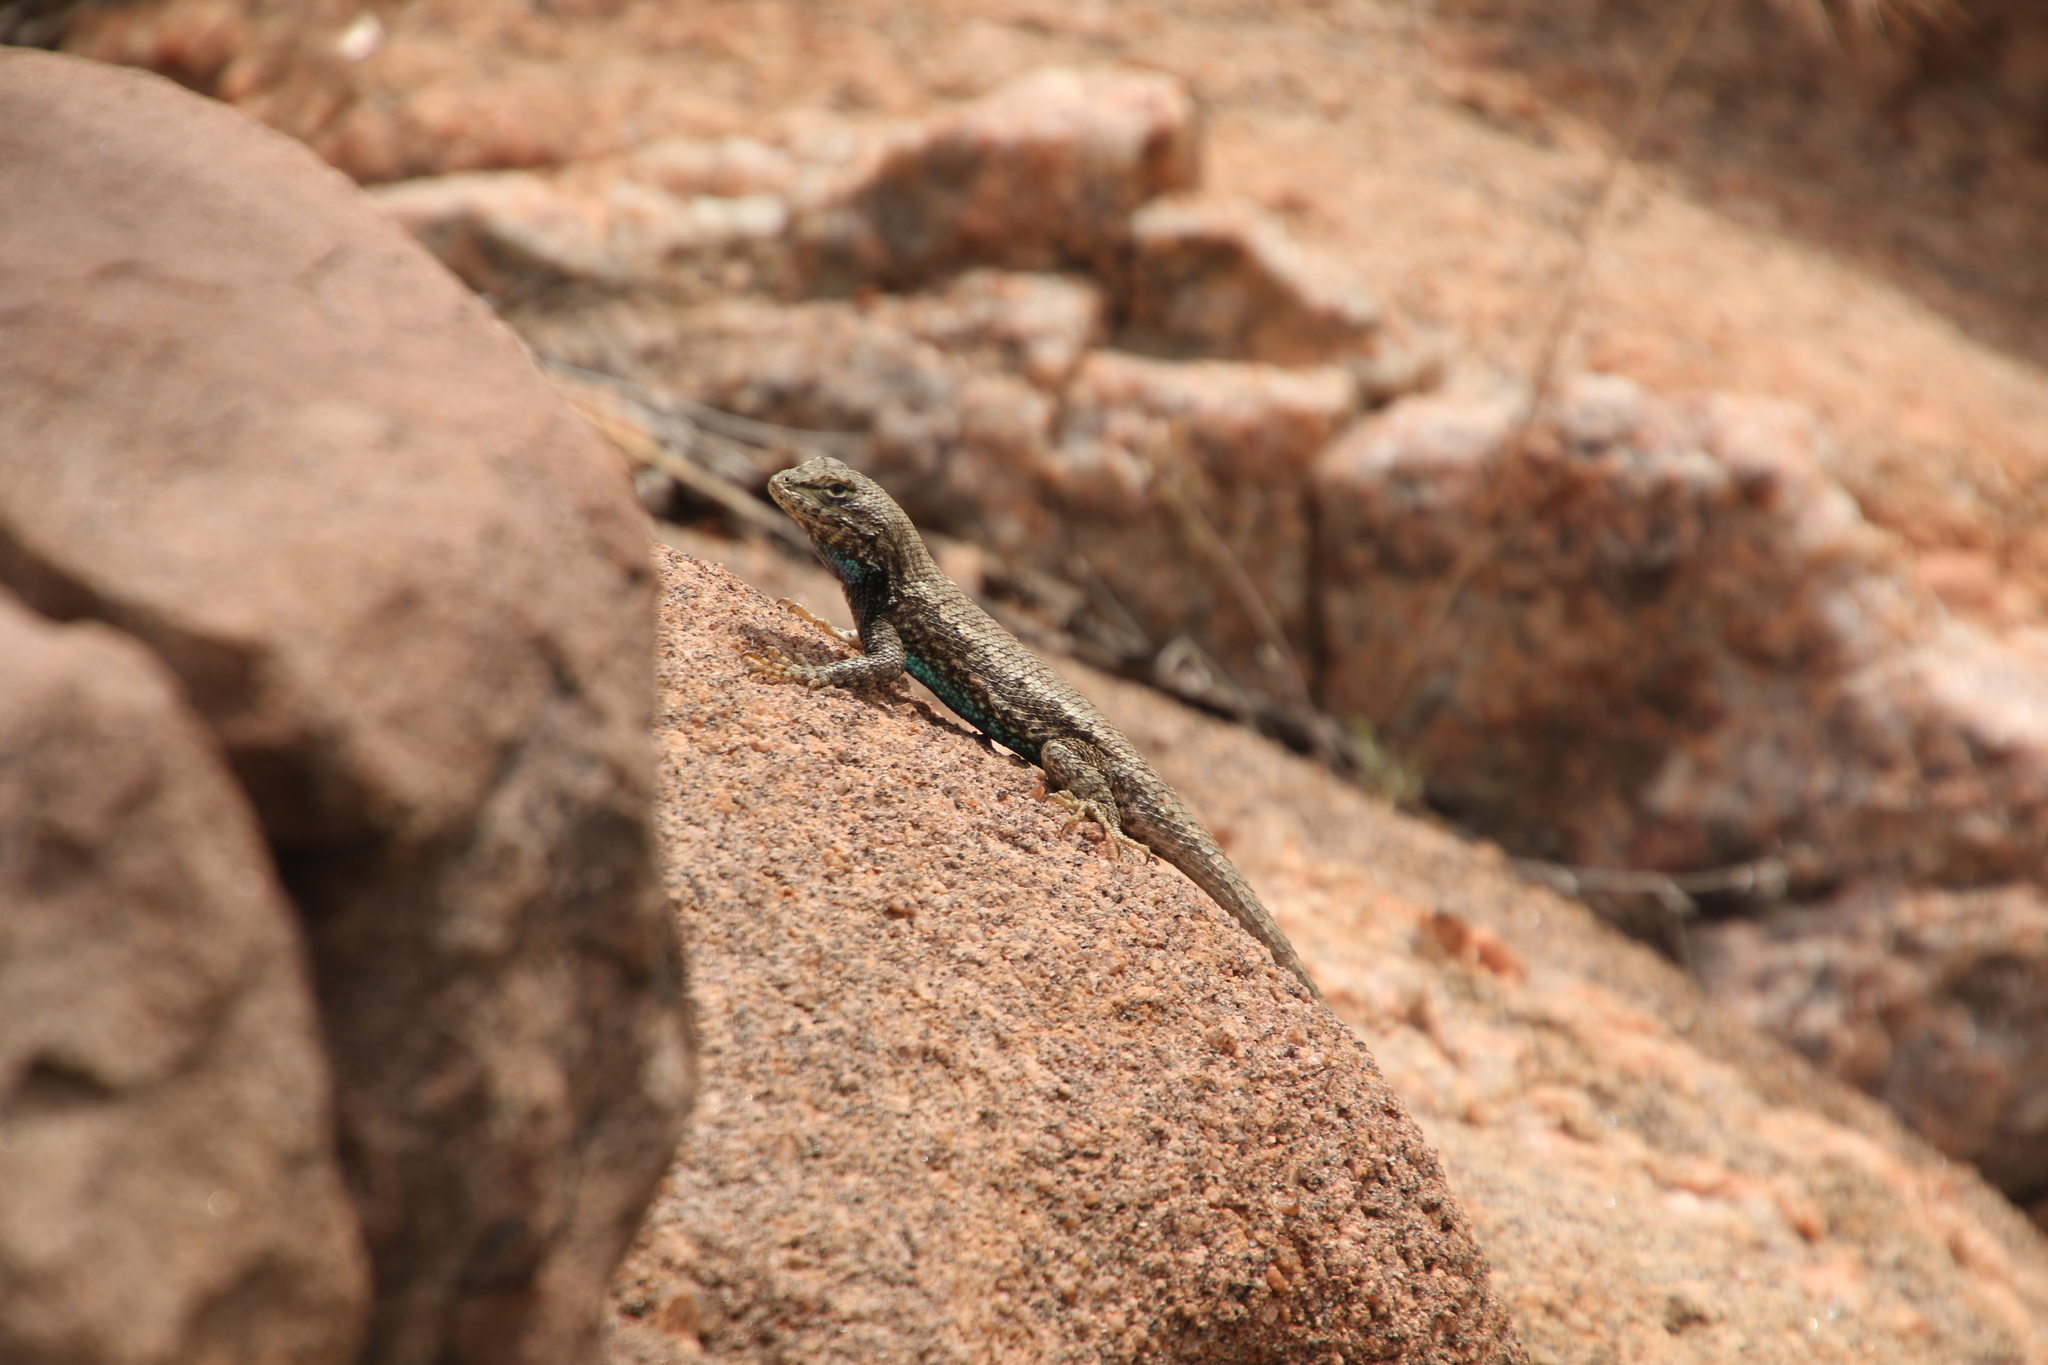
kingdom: Animalia
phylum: Chordata
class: Squamata
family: Phrynosomatidae
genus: Sceloporus
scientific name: Sceloporus consobrinus
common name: Southern prairie lizard
